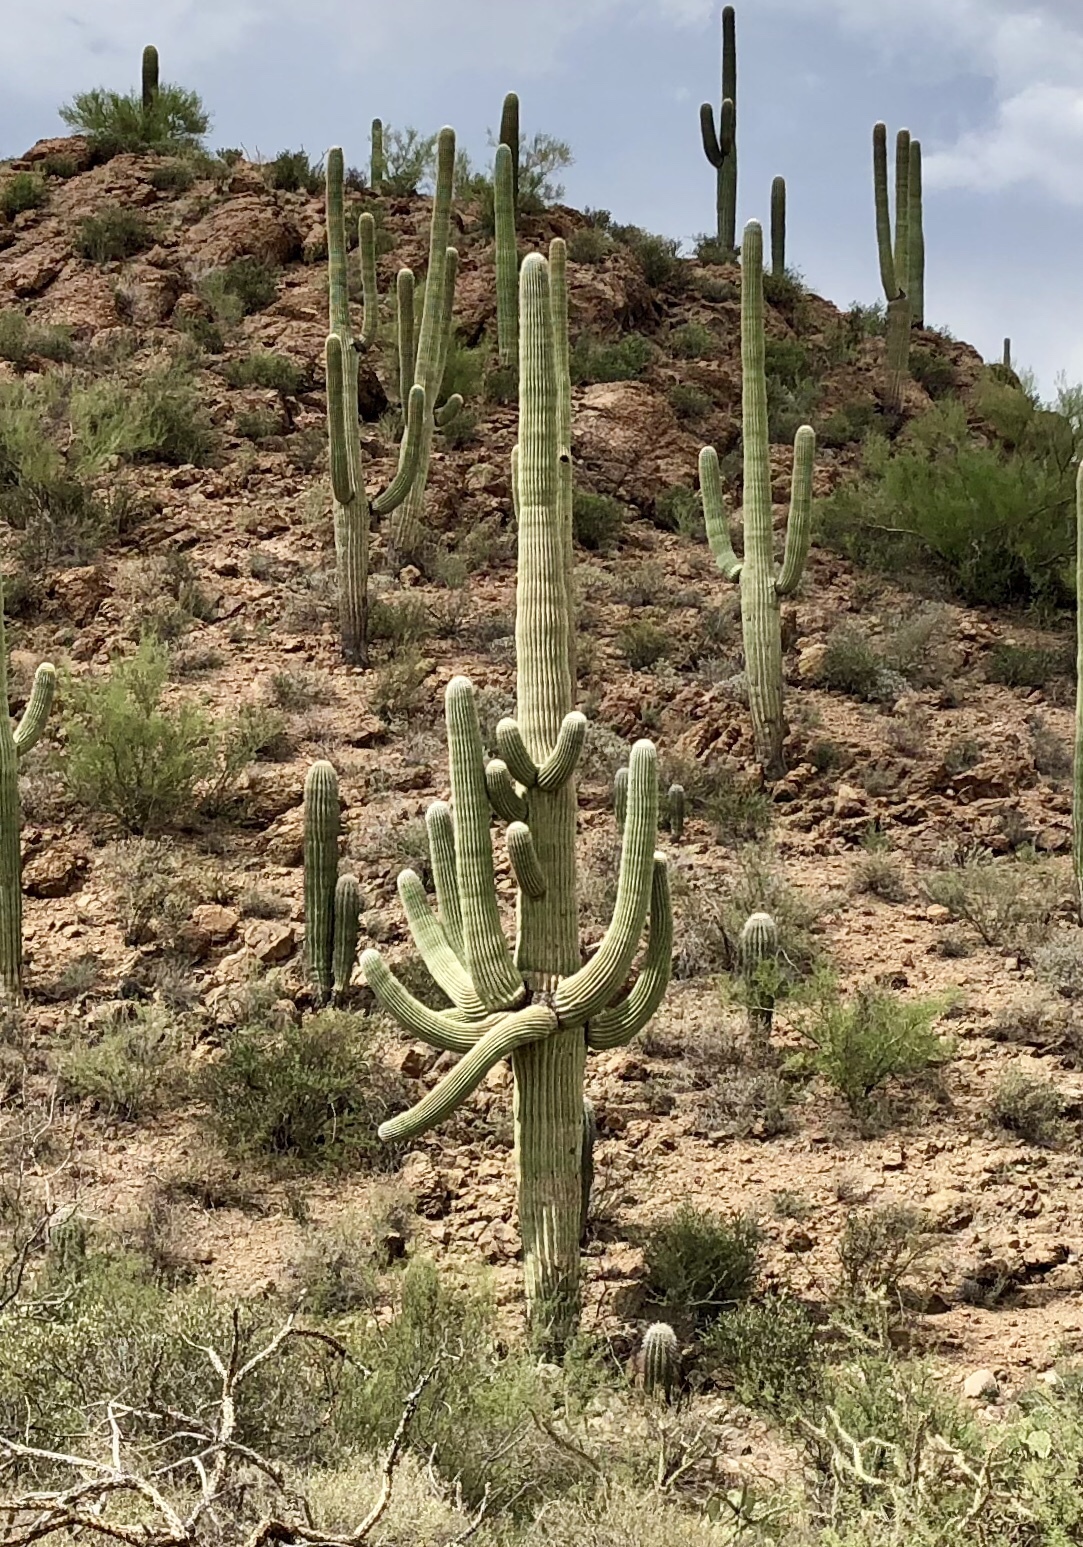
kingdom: Plantae
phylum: Tracheophyta
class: Magnoliopsida
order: Caryophyllales
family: Cactaceae
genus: Carnegiea
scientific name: Carnegiea gigantea
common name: Saguaro
